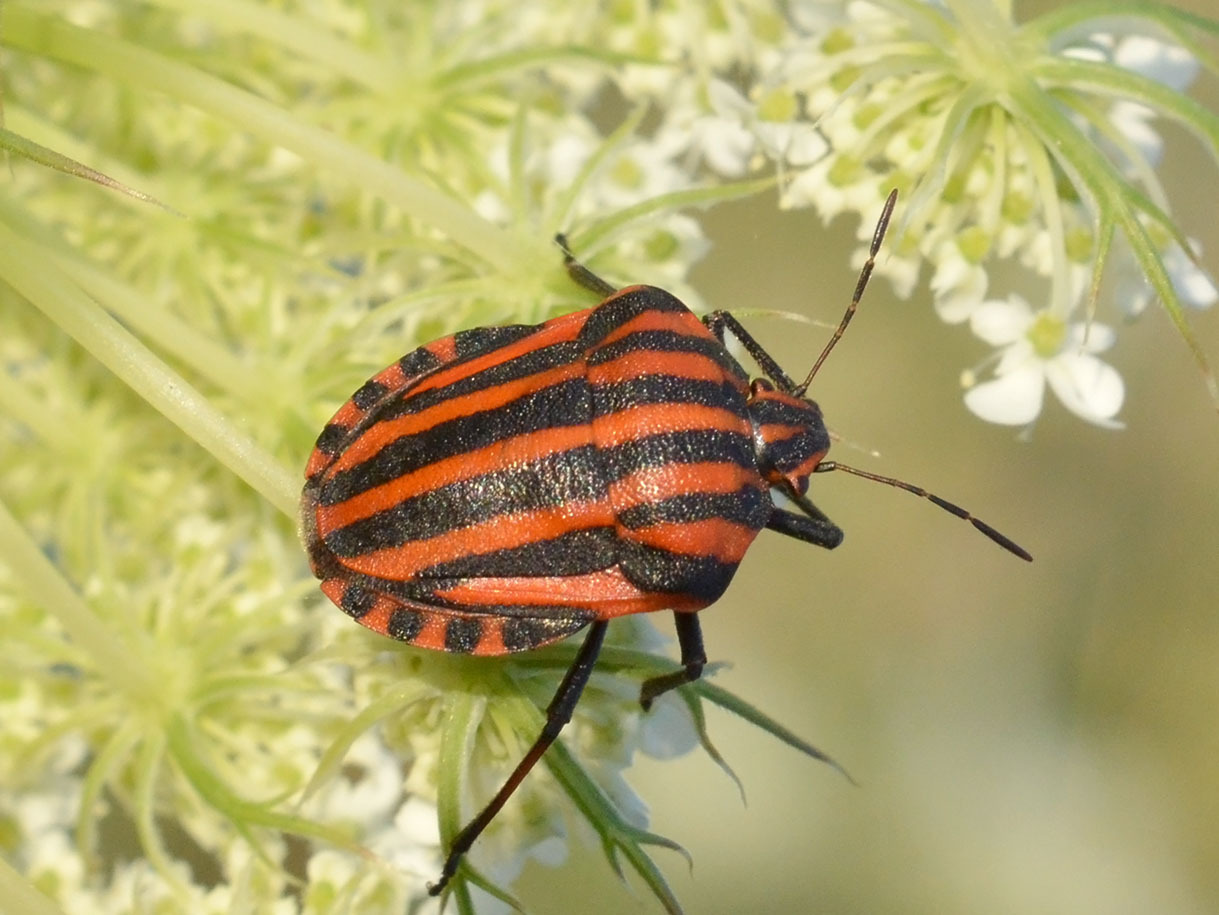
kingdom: Animalia
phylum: Arthropoda
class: Insecta
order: Hemiptera
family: Pentatomidae
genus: Graphosoma
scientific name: Graphosoma italicum
